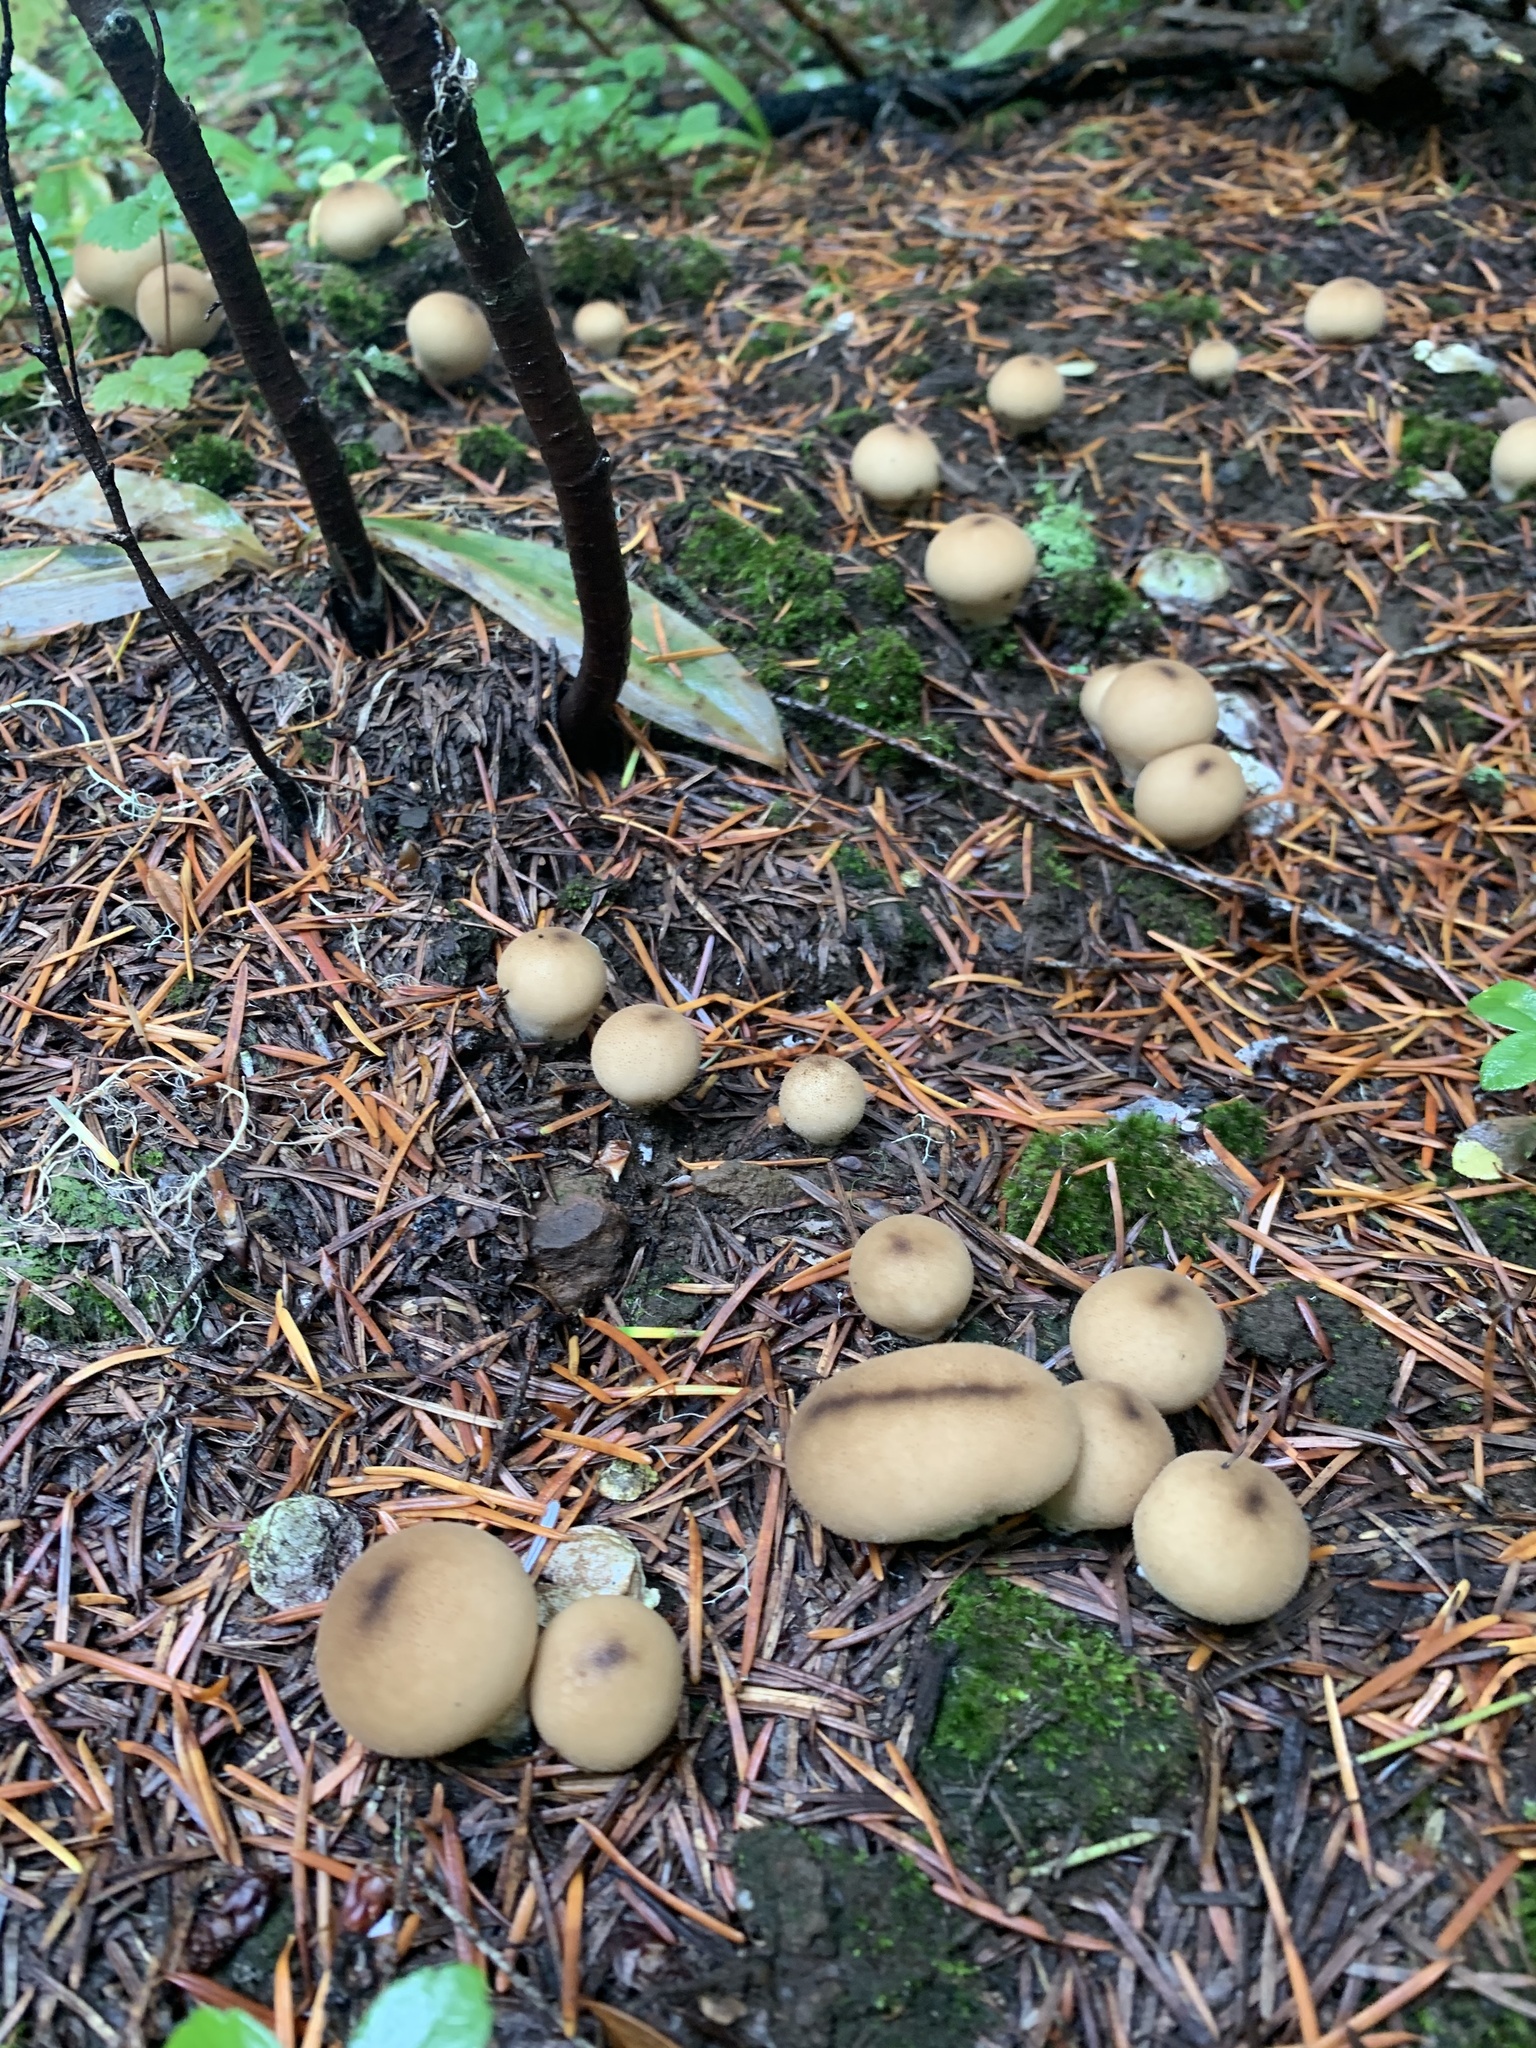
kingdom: Fungi
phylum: Basidiomycota
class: Agaricomycetes
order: Agaricales
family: Lycoperdaceae
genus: Apioperdon
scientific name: Apioperdon pyriforme
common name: Pear-shaped puffball
